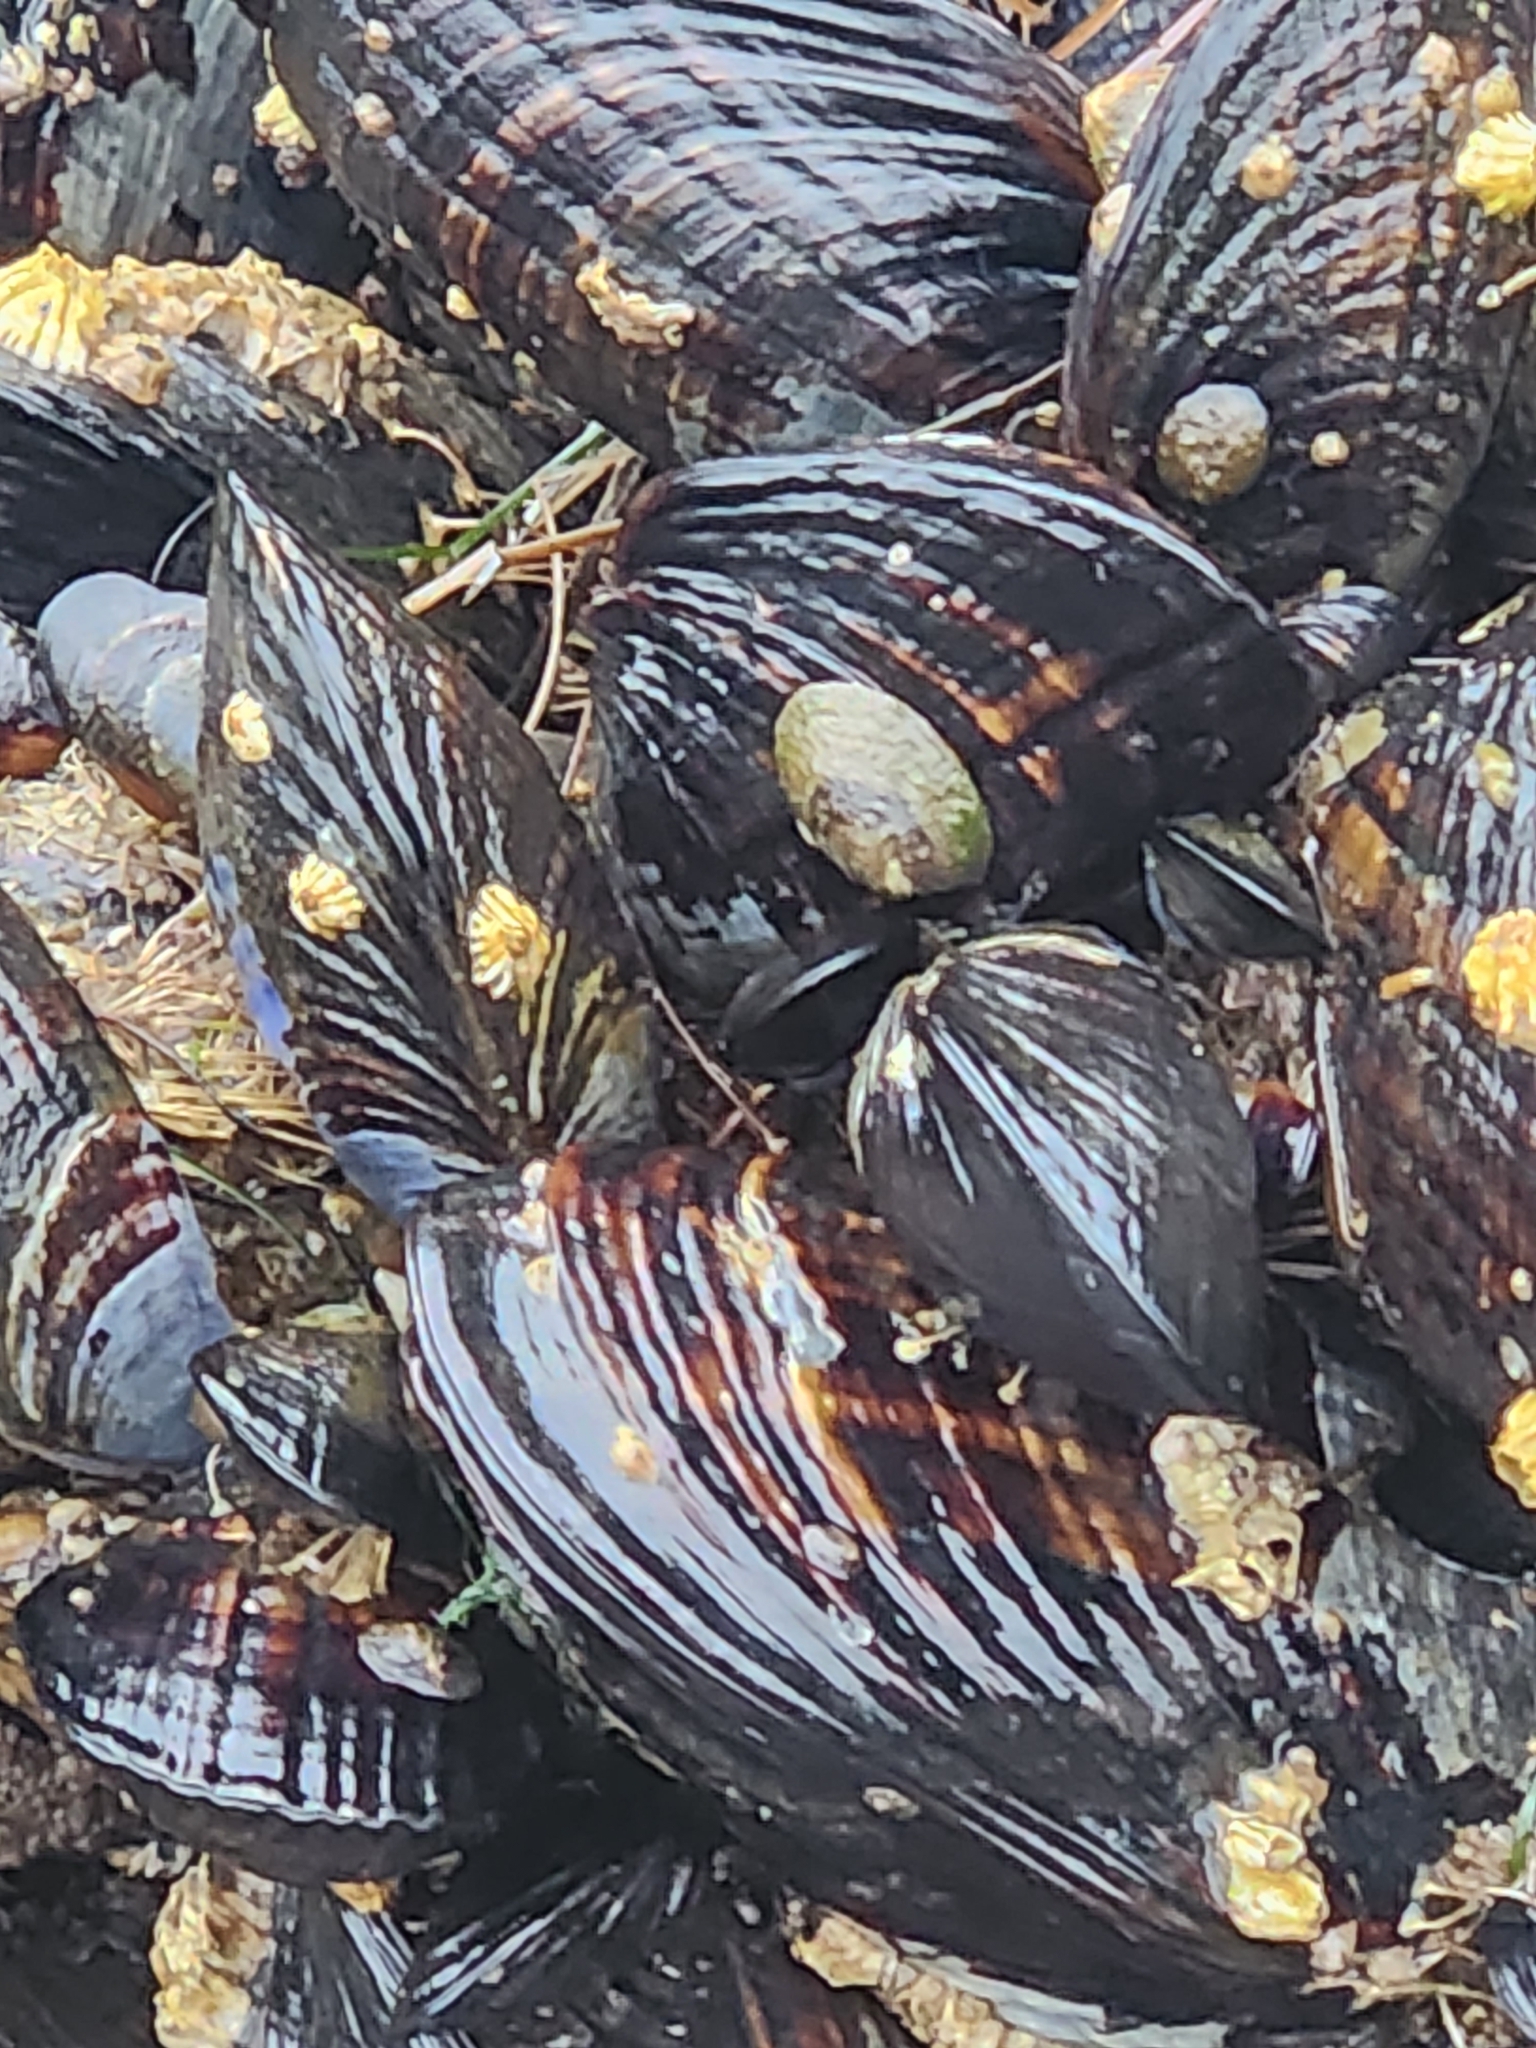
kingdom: Animalia
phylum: Mollusca
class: Bivalvia
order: Mytilida
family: Mytilidae
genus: Mytilus
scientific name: Mytilus californianus
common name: California mussel
